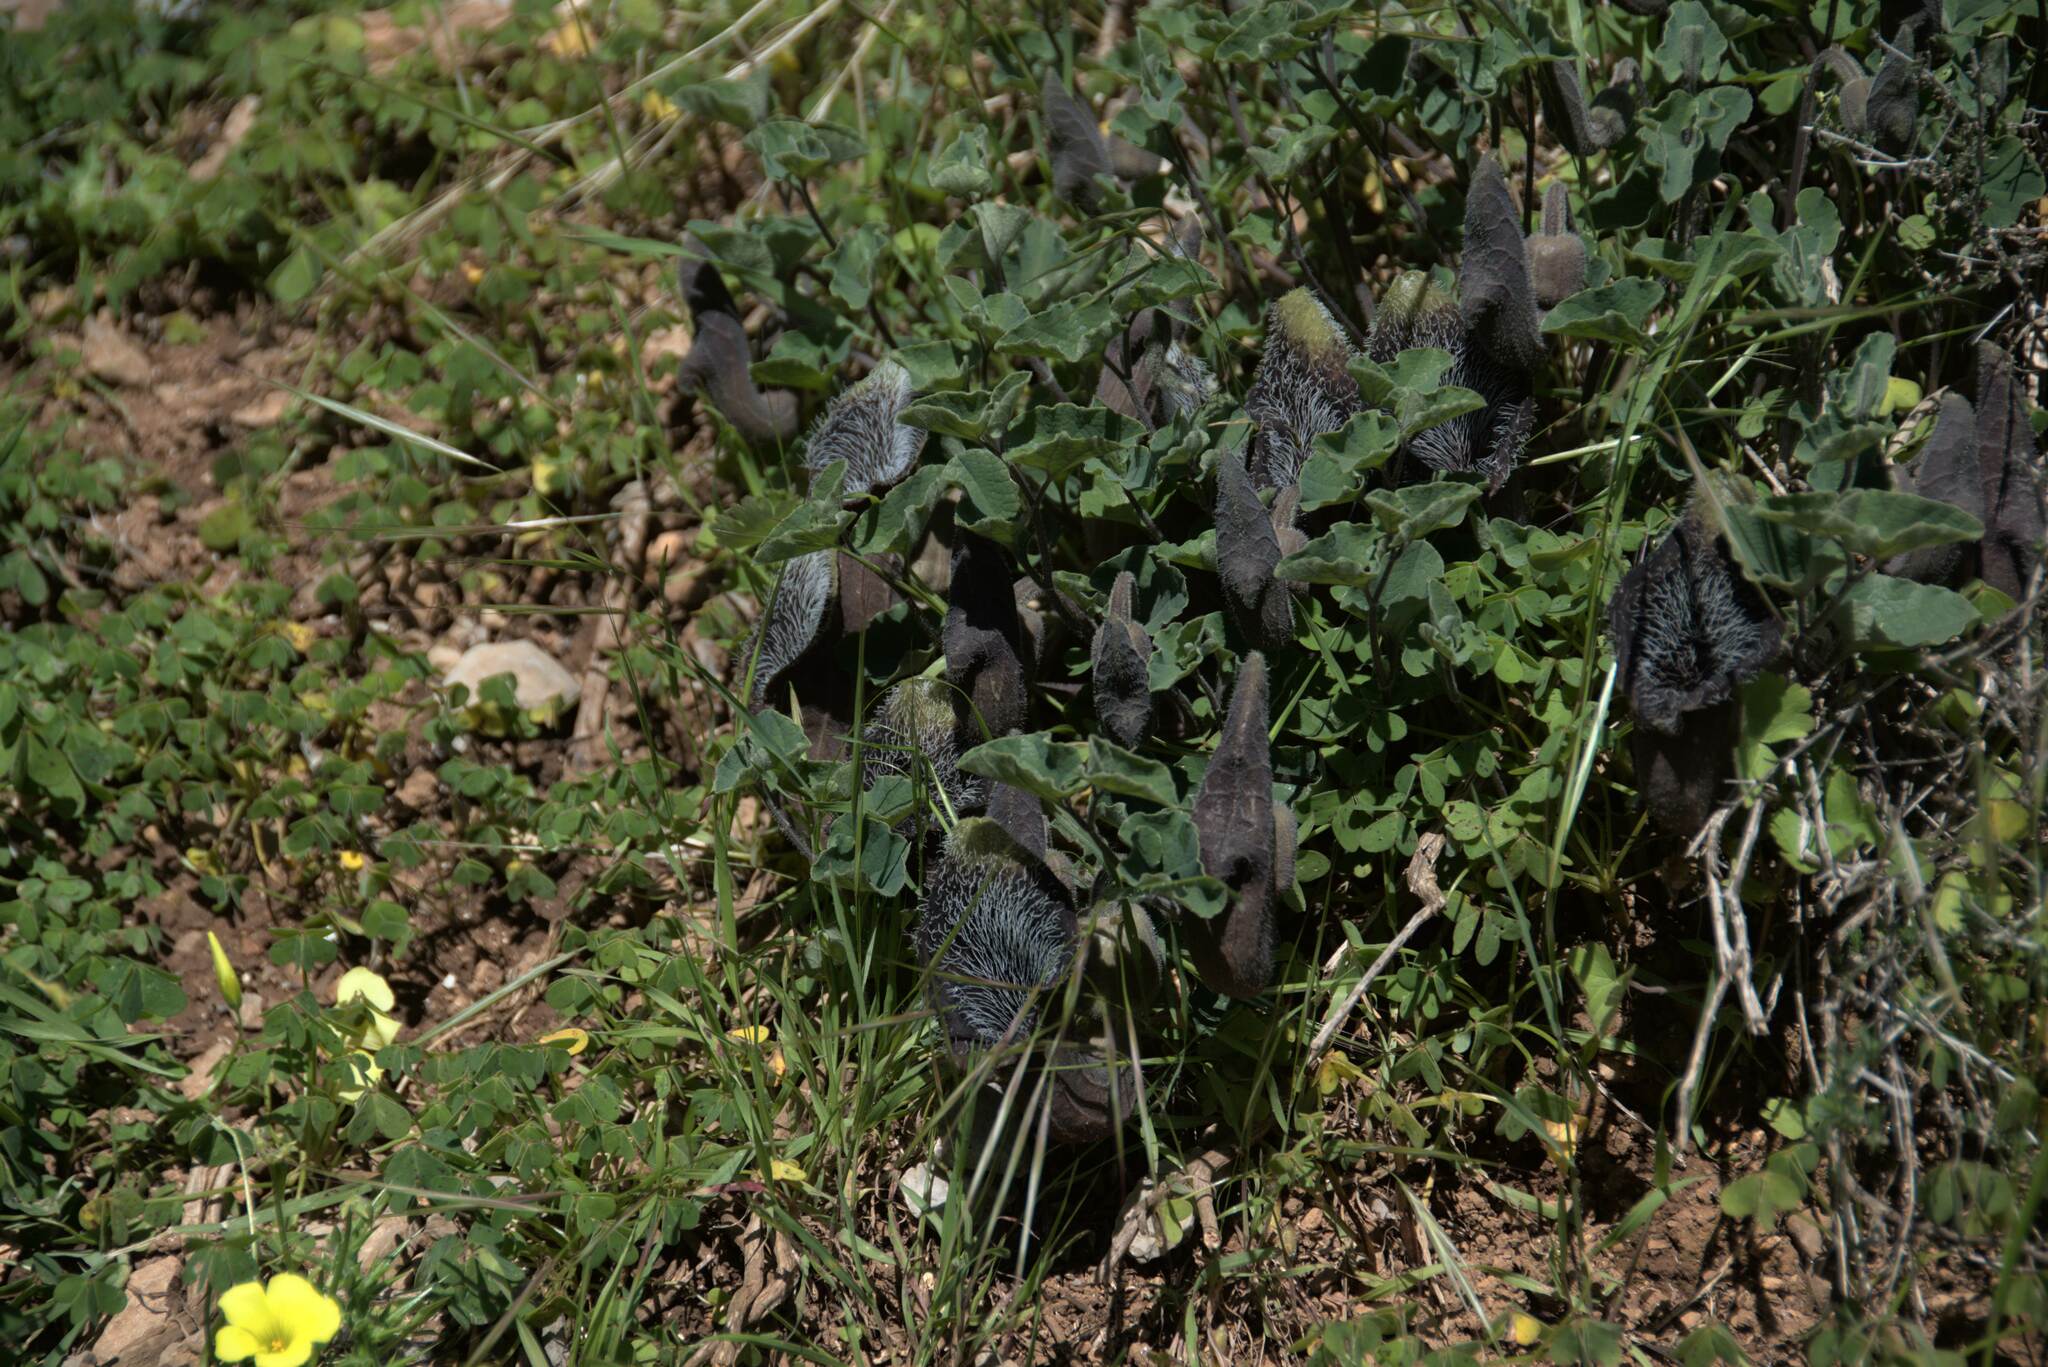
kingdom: Plantae
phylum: Tracheophyta
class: Magnoliopsida
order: Piperales
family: Aristolochiaceae
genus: Aristolochia
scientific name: Aristolochia cretica
